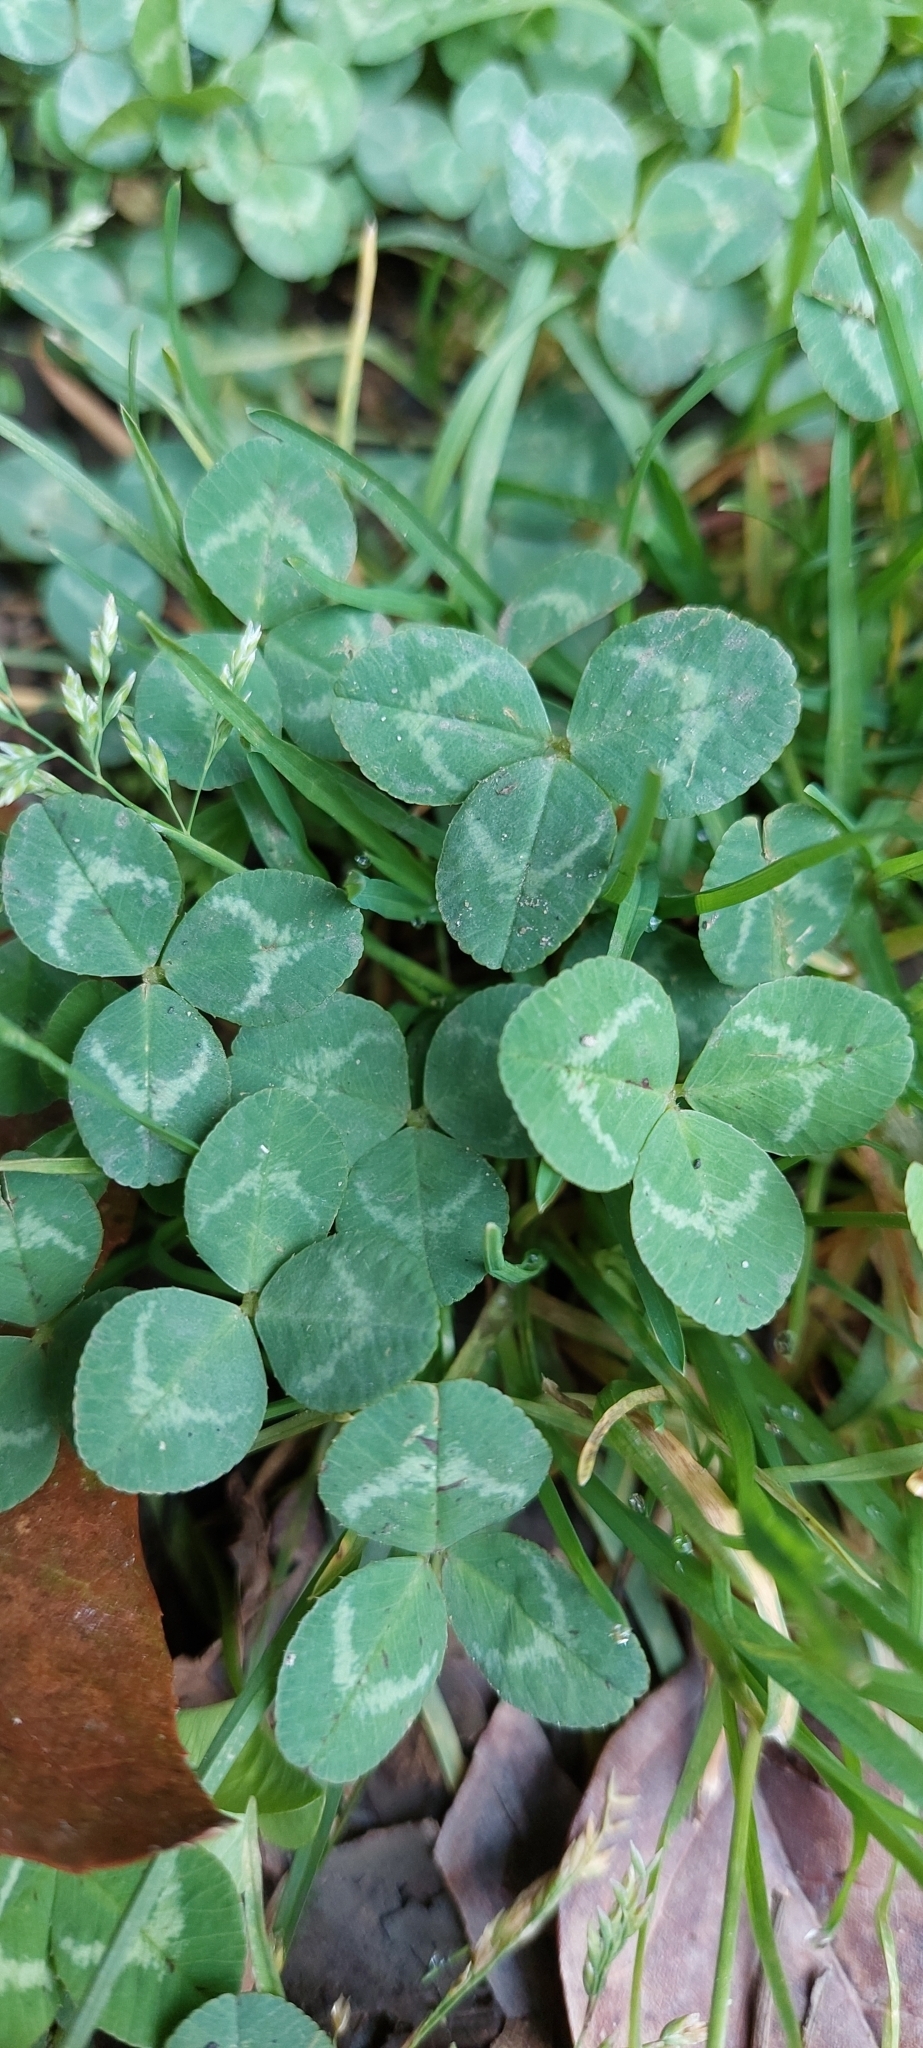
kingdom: Plantae
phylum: Tracheophyta
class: Magnoliopsida
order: Fabales
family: Fabaceae
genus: Trifolium
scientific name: Trifolium repens
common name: White clover
